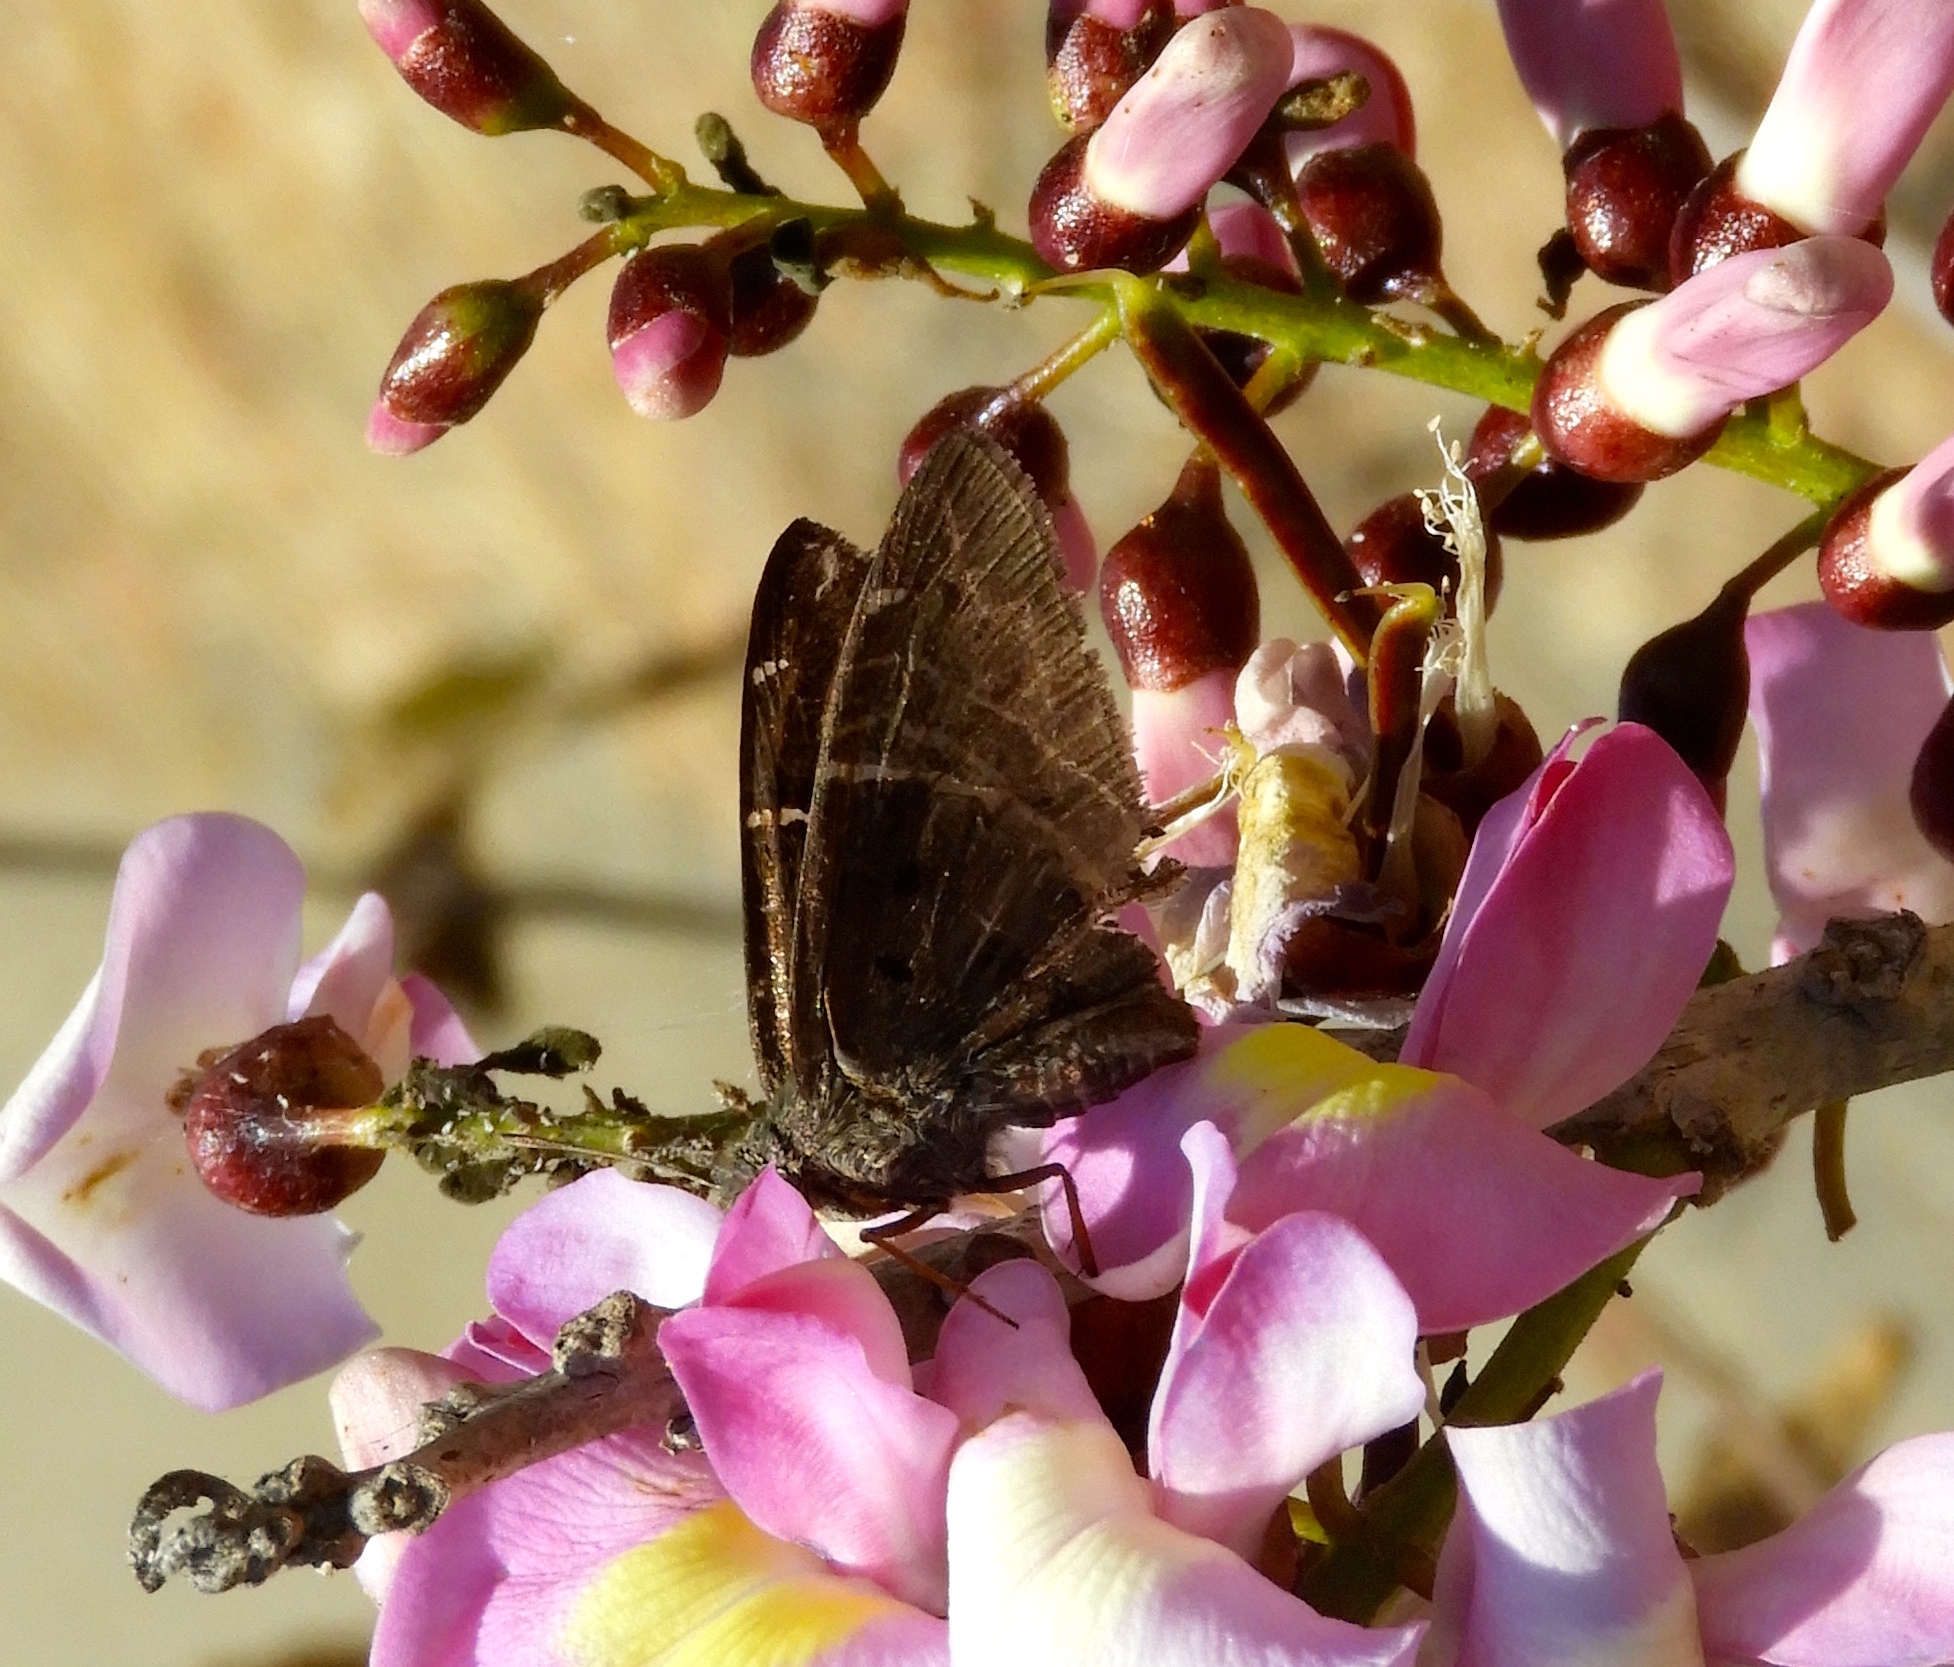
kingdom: Animalia
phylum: Arthropoda
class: Insecta
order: Lepidoptera
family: Hesperiidae
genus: Urbanus
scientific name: Urbanus procne
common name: Brown longtail
